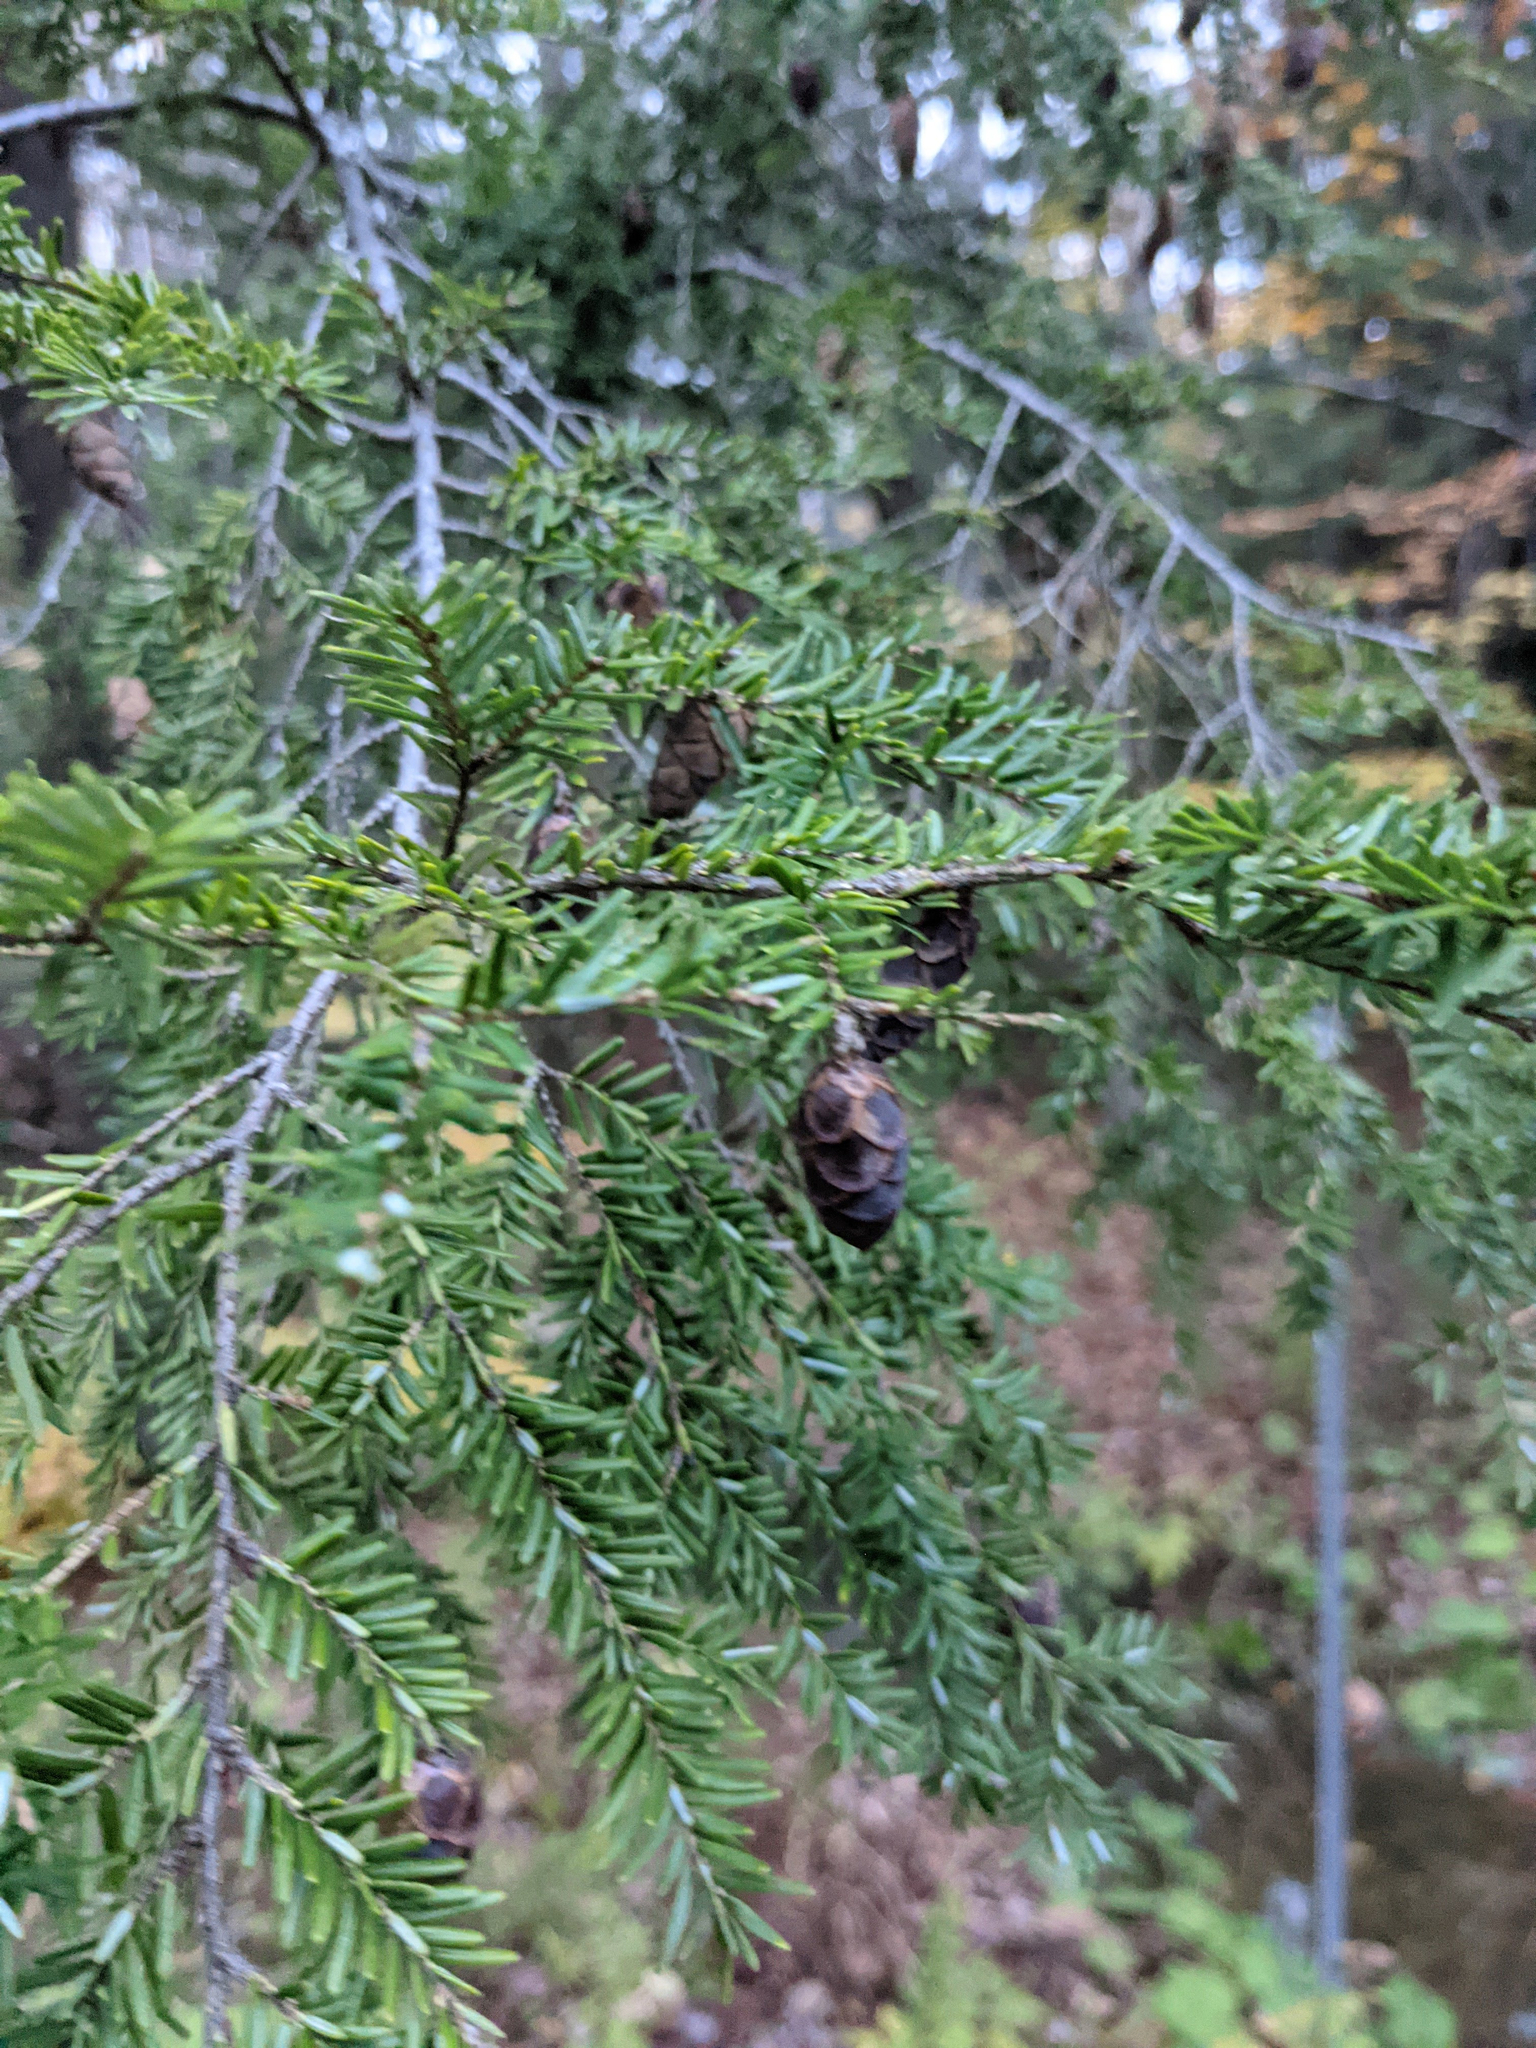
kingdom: Plantae
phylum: Tracheophyta
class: Pinopsida
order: Pinales
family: Pinaceae
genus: Tsuga
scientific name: Tsuga canadensis
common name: Eastern hemlock
